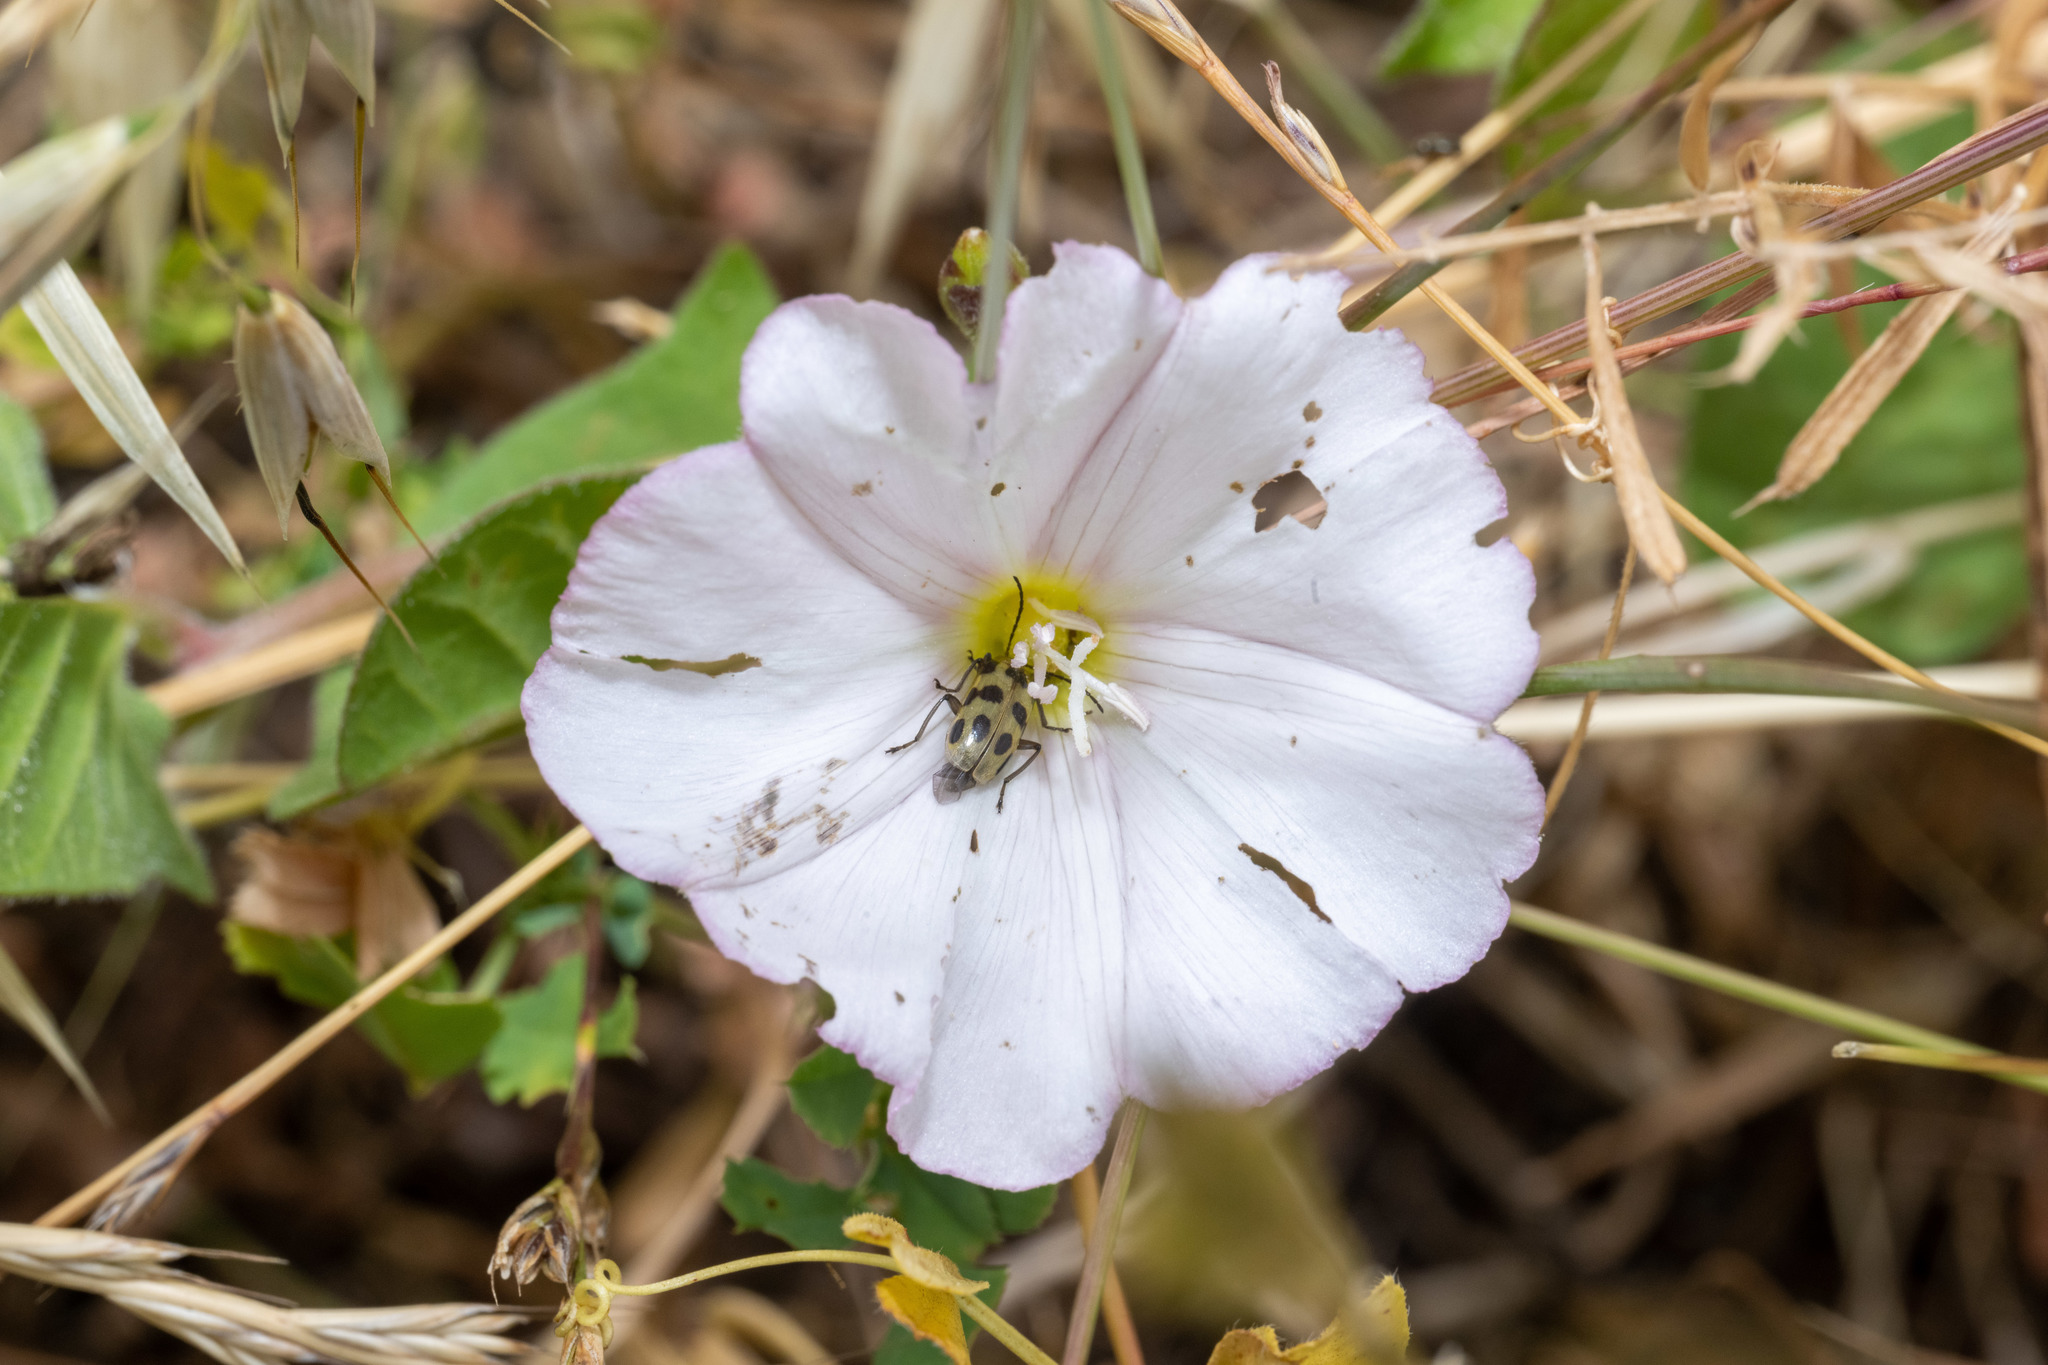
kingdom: Animalia
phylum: Arthropoda
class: Insecta
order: Coleoptera
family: Chrysomelidae
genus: Diabrotica
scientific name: Diabrotica undecimpunctata
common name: Spotted cucumber beetle
